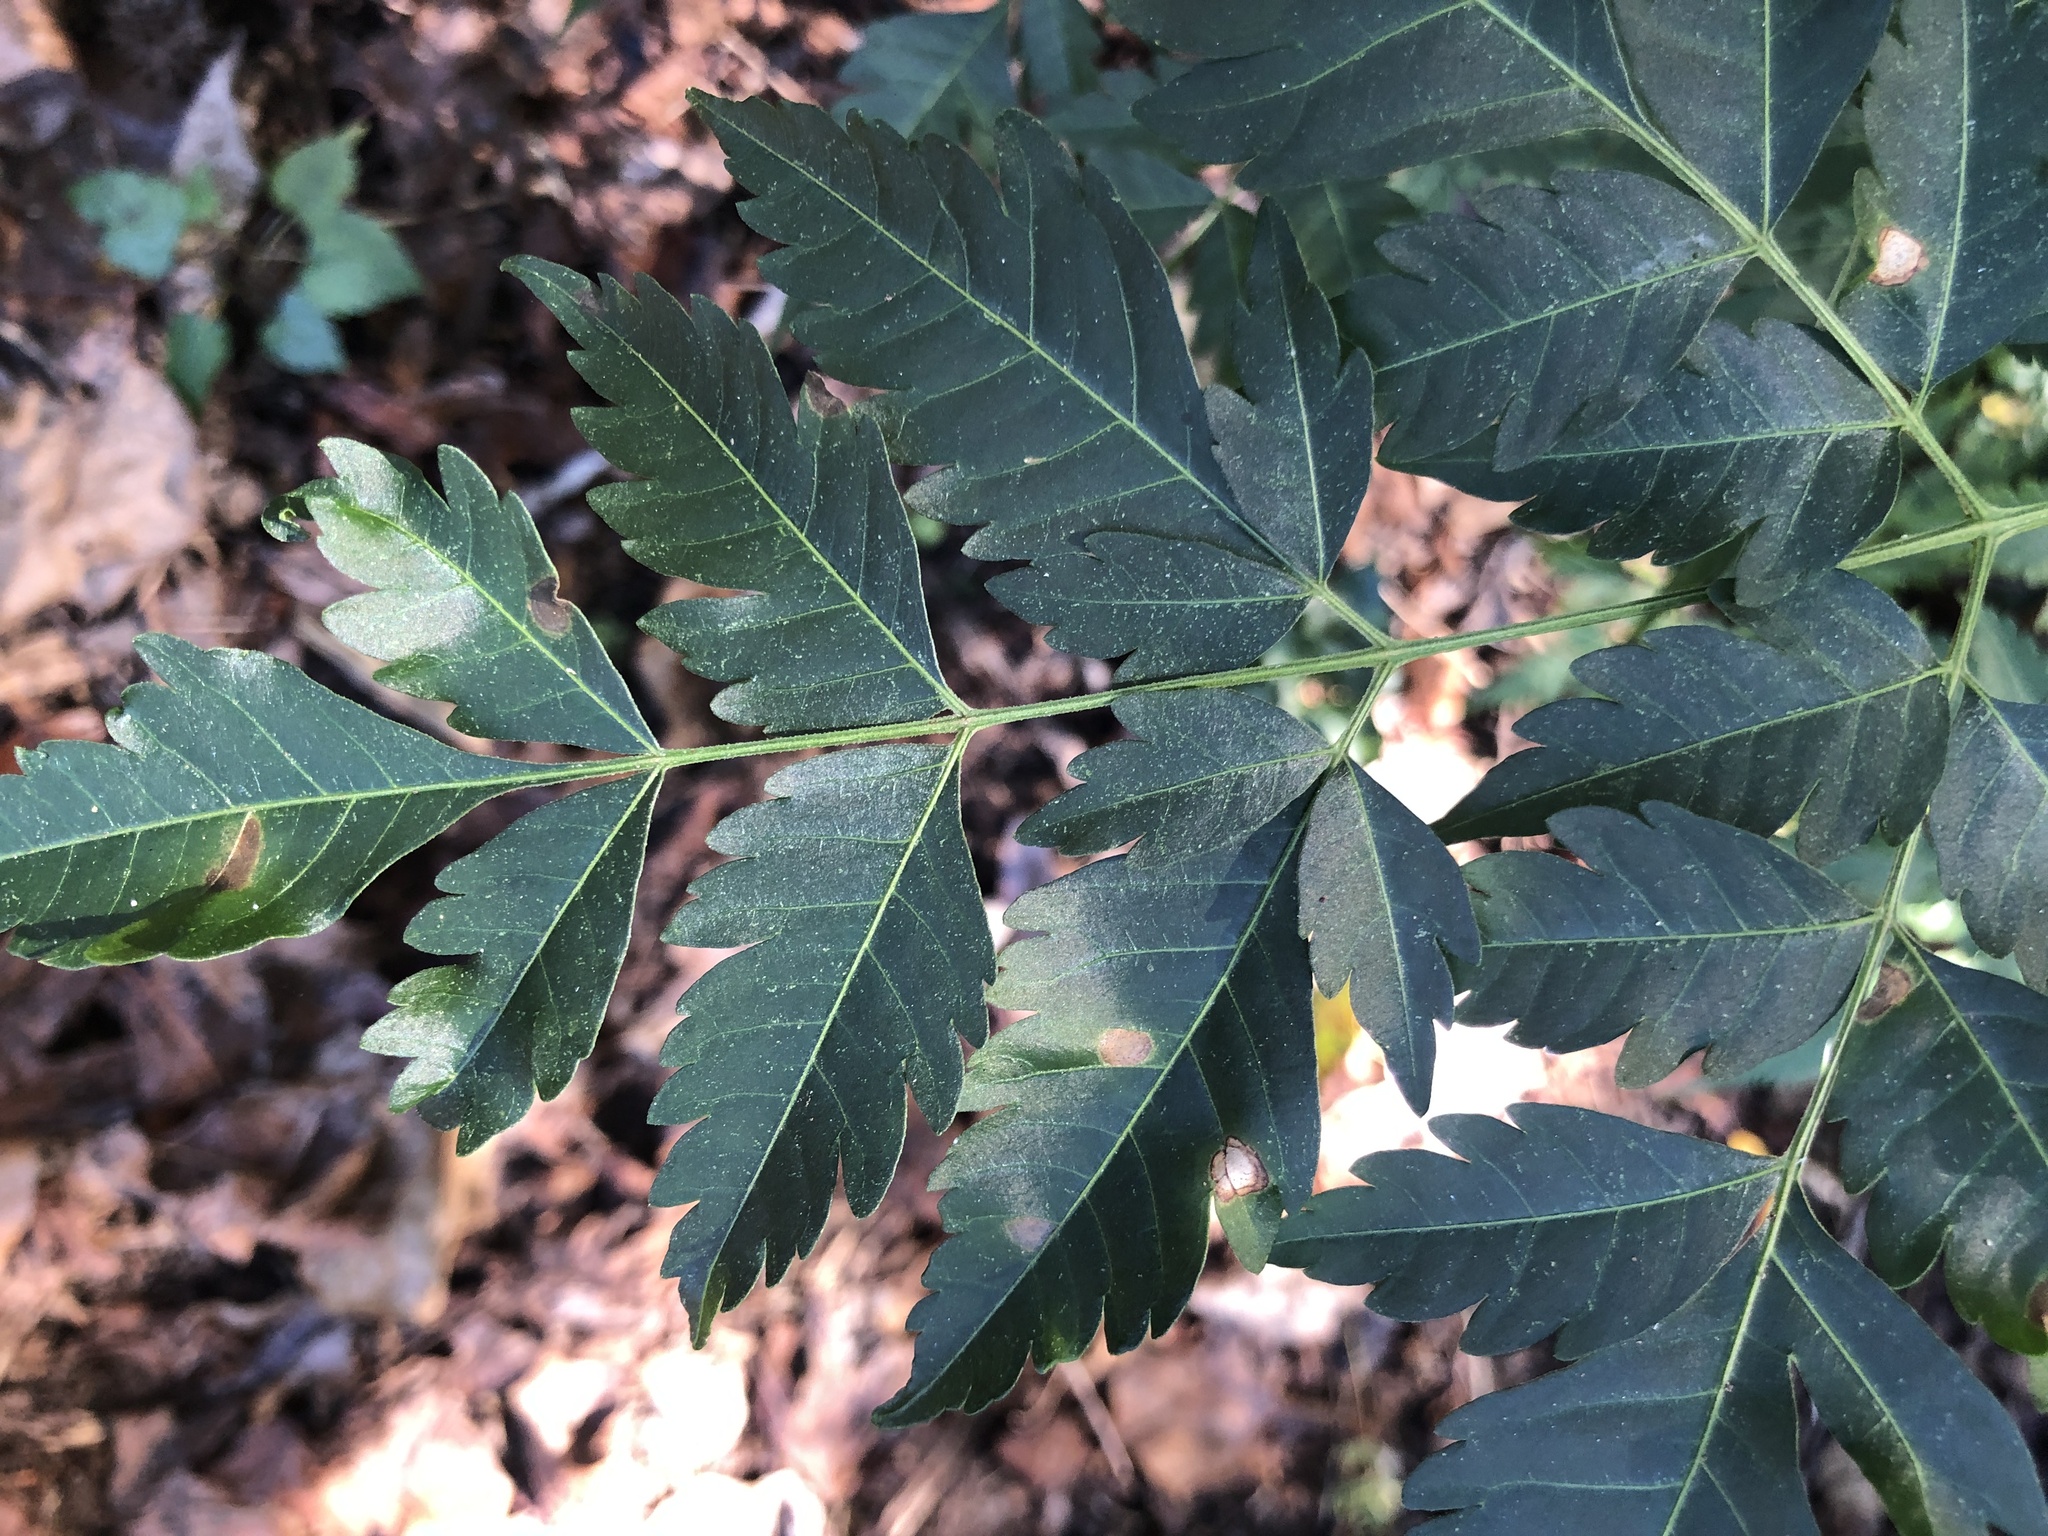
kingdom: Plantae
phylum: Tracheophyta
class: Magnoliopsida
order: Sapindales
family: Meliaceae
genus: Melia
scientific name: Melia azedarach
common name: Chinaberrytree
